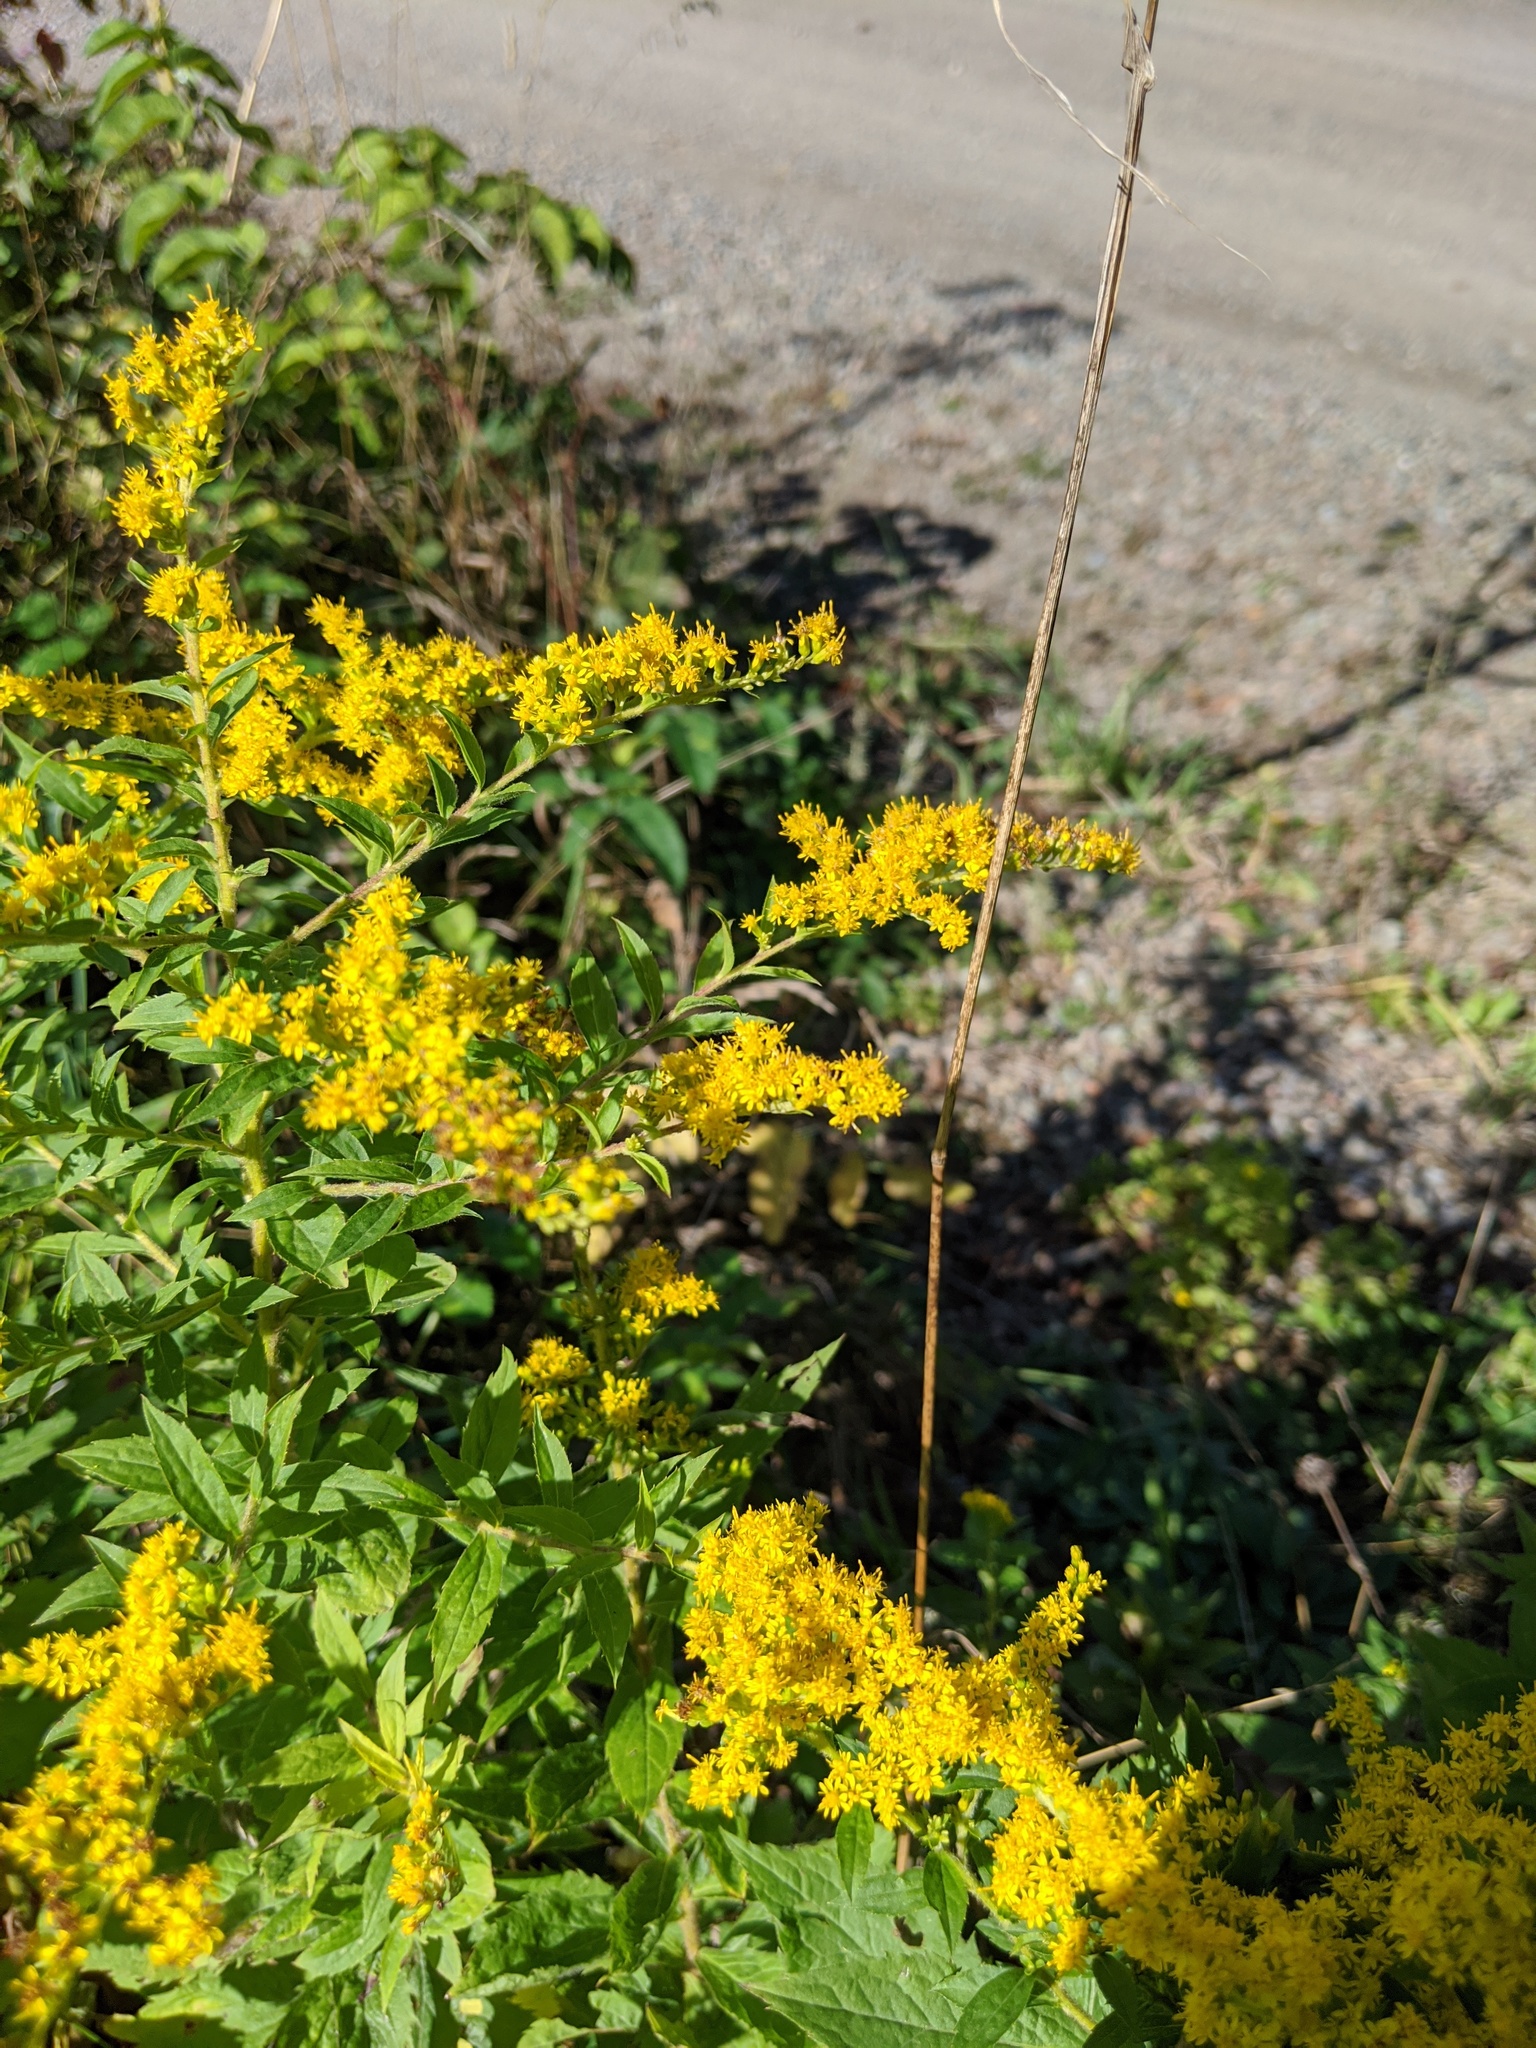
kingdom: Plantae
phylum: Tracheophyta
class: Magnoliopsida
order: Asterales
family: Asteraceae
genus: Solidago
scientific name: Solidago rugosa
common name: Rough-stemmed goldenrod
